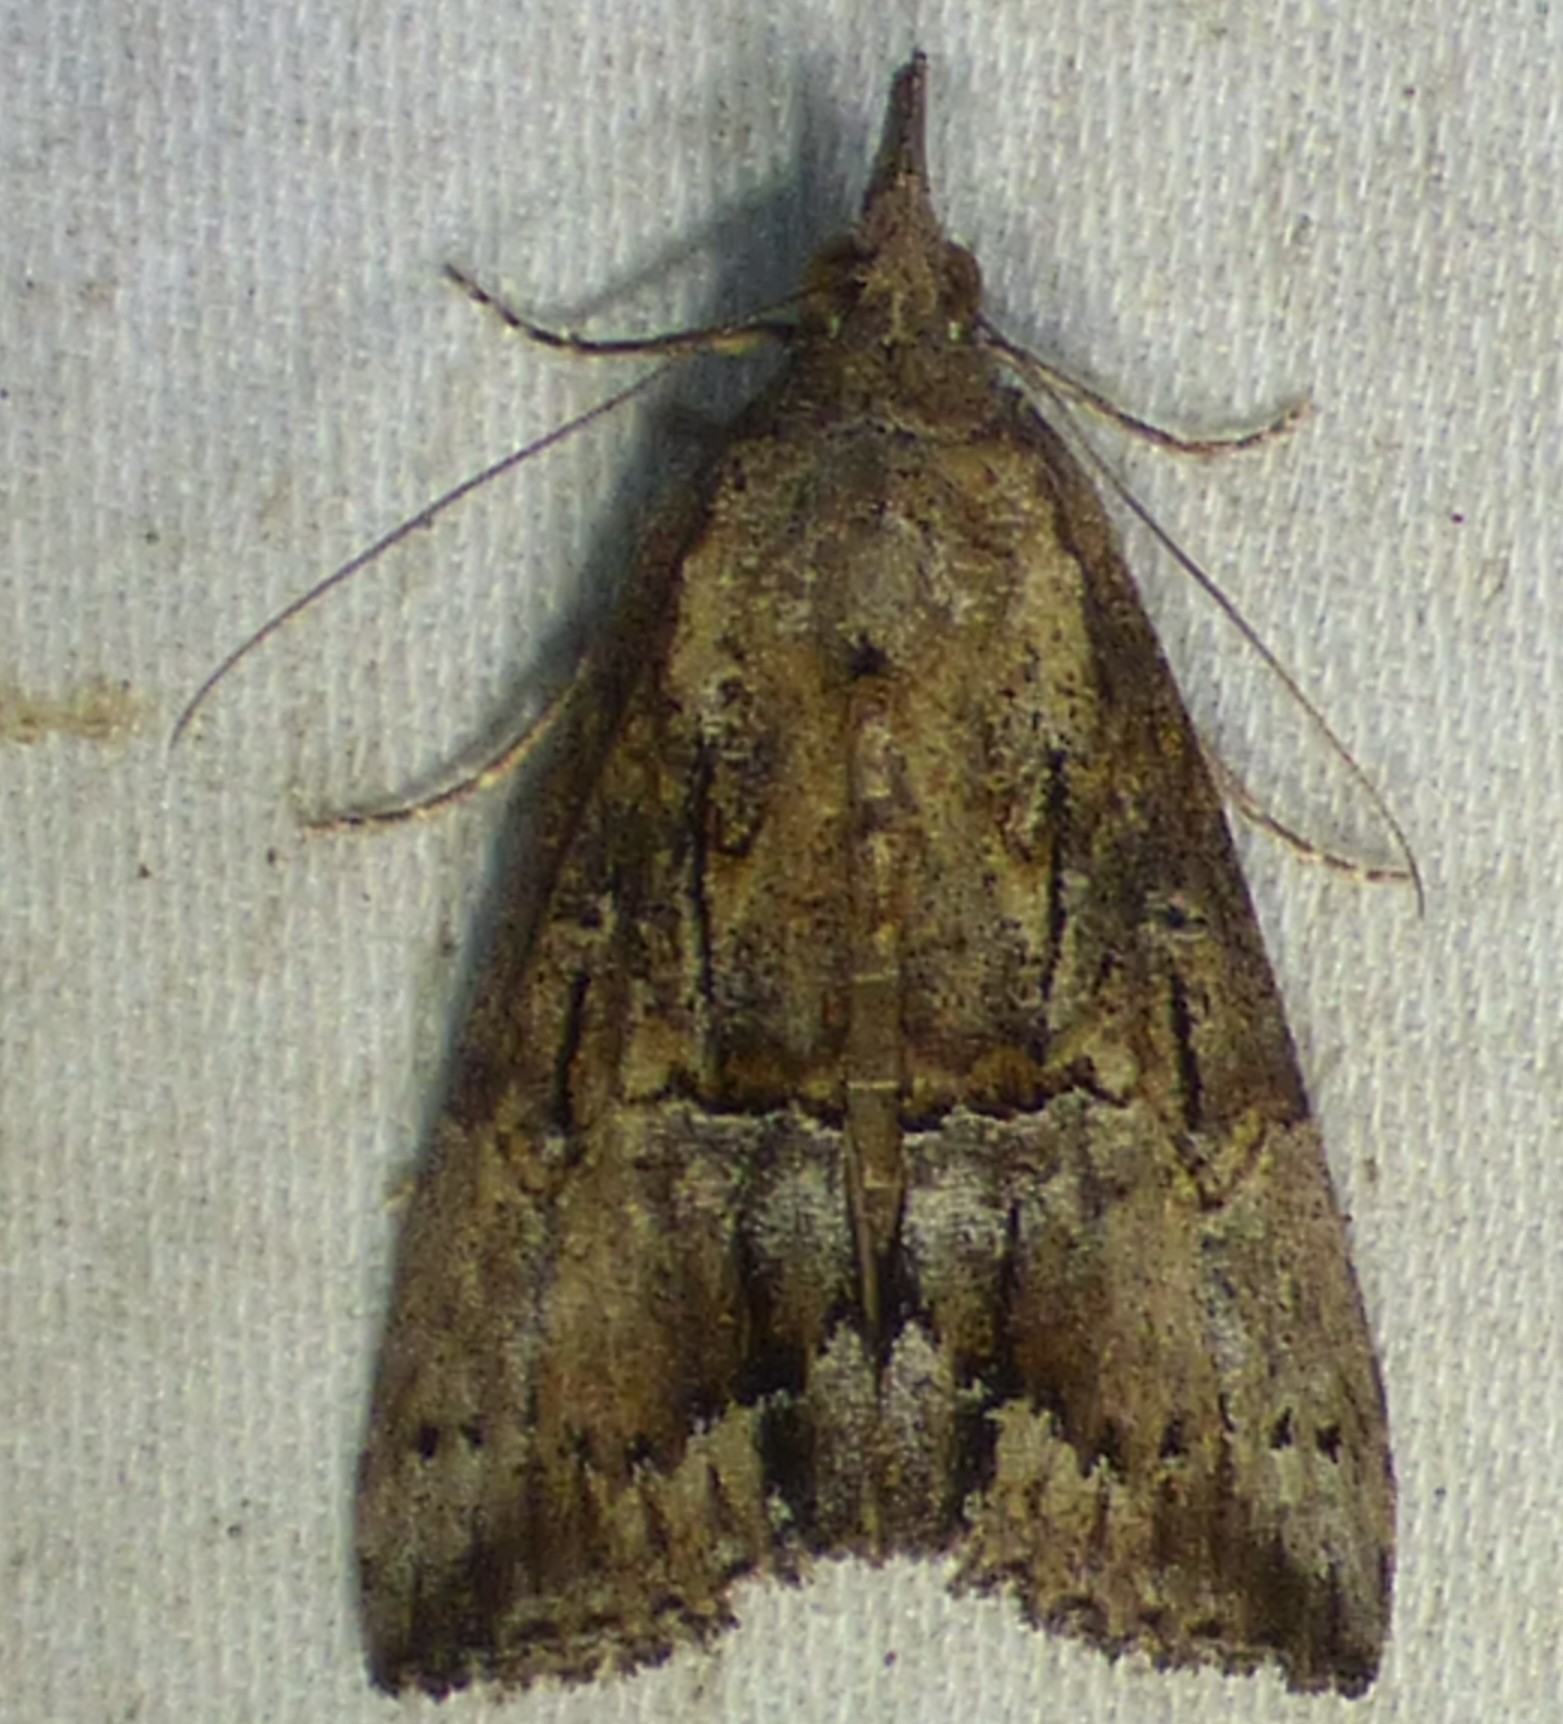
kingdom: Animalia
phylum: Arthropoda
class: Insecta
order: Lepidoptera
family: Erebidae
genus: Hypena
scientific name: Hypena scabra
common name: Green cloverworm
